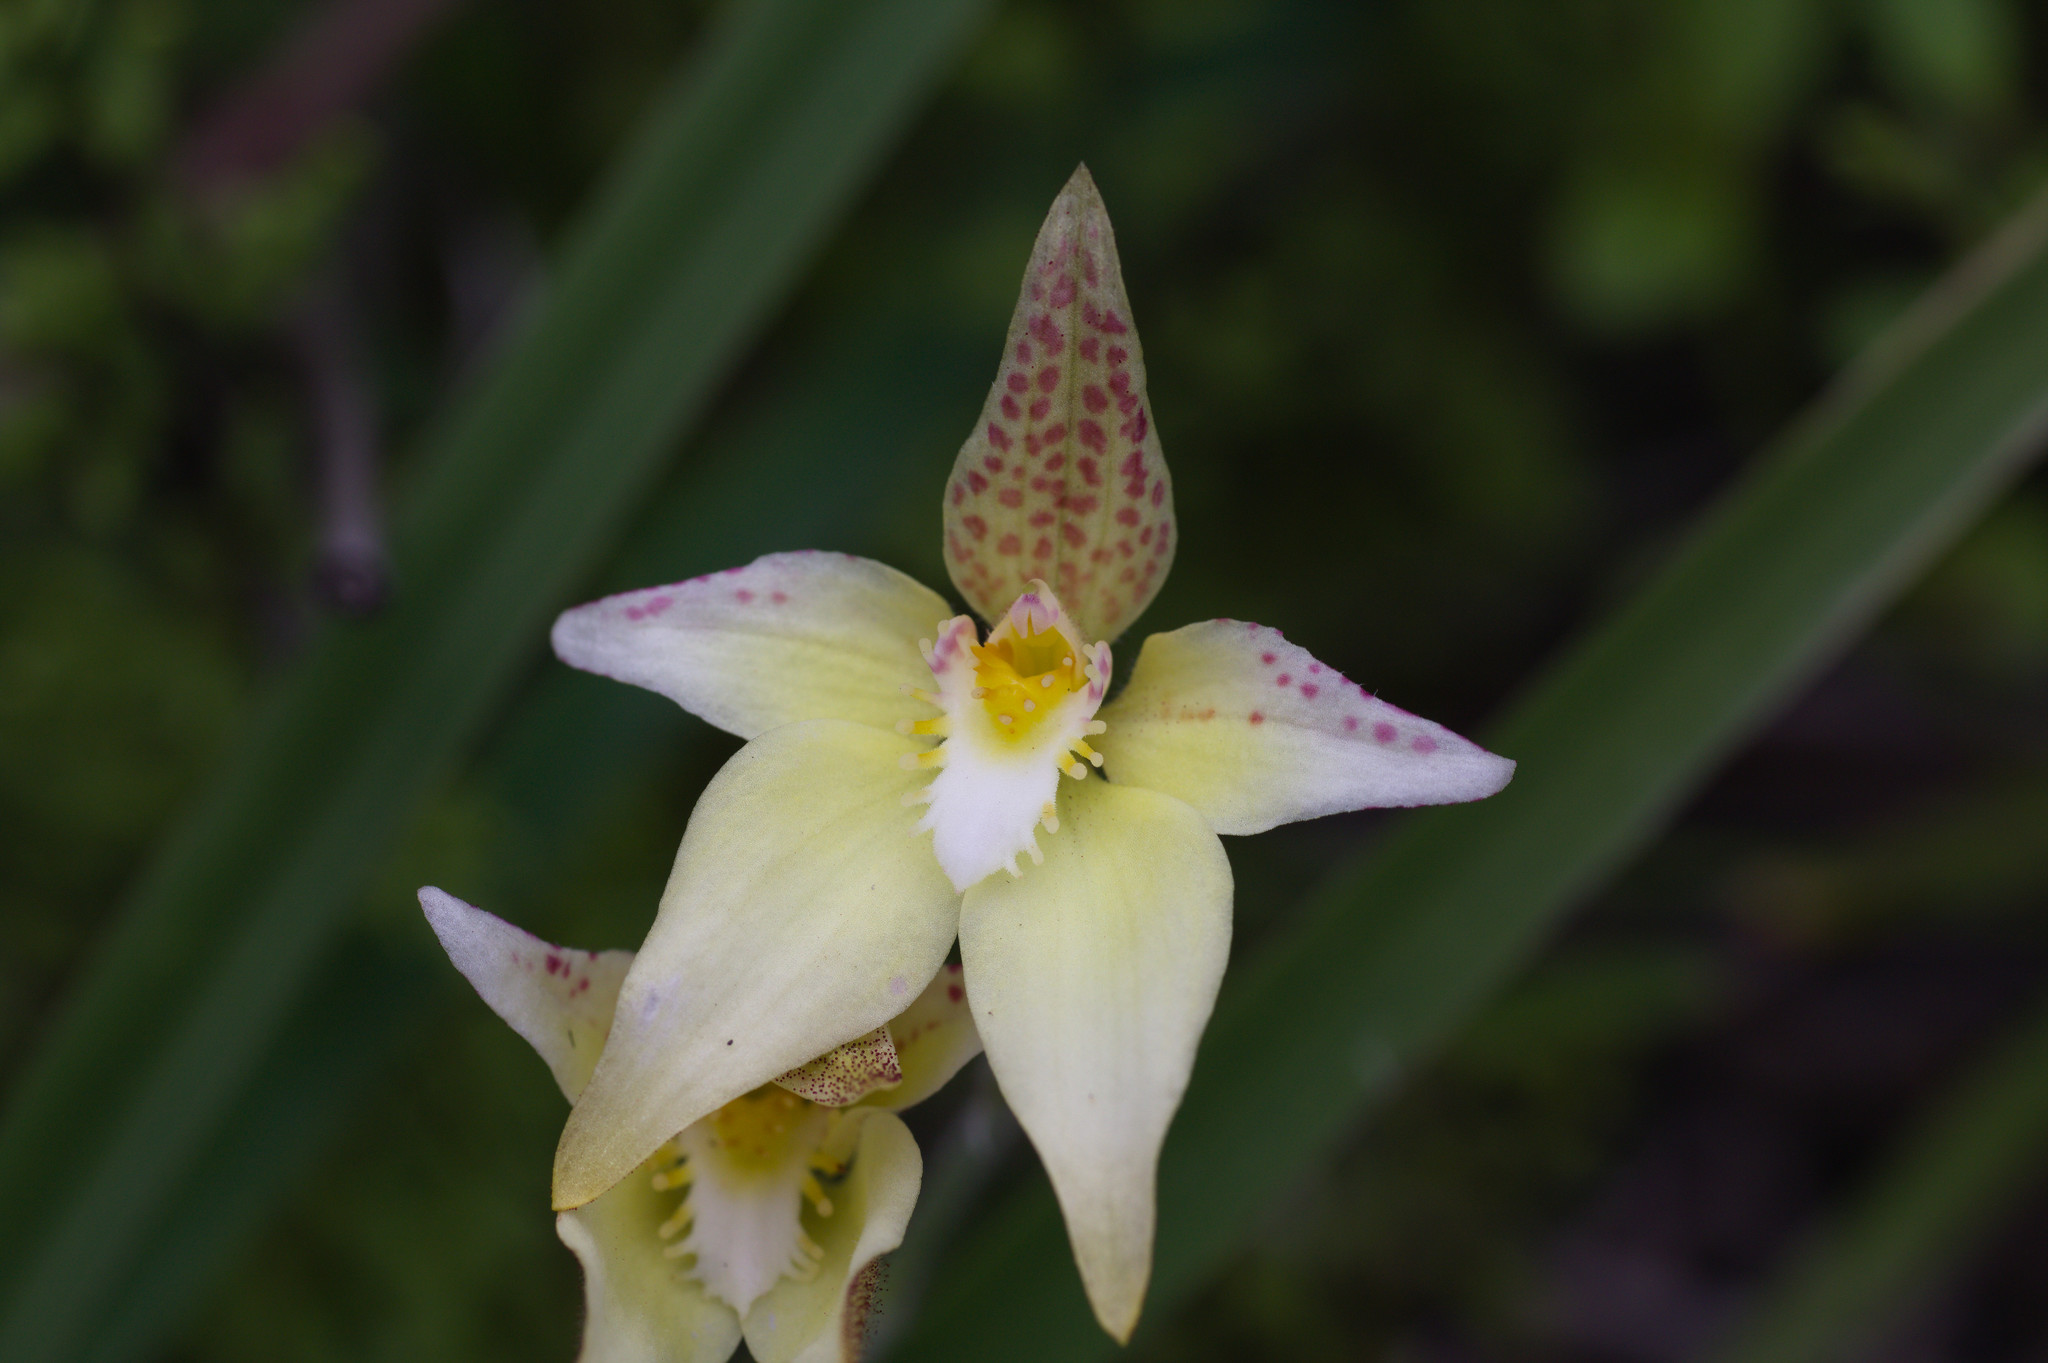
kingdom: Plantae
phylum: Tracheophyta
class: Liliopsida
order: Asparagales
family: Orchidaceae
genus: Caladenia
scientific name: Caladenia flava
